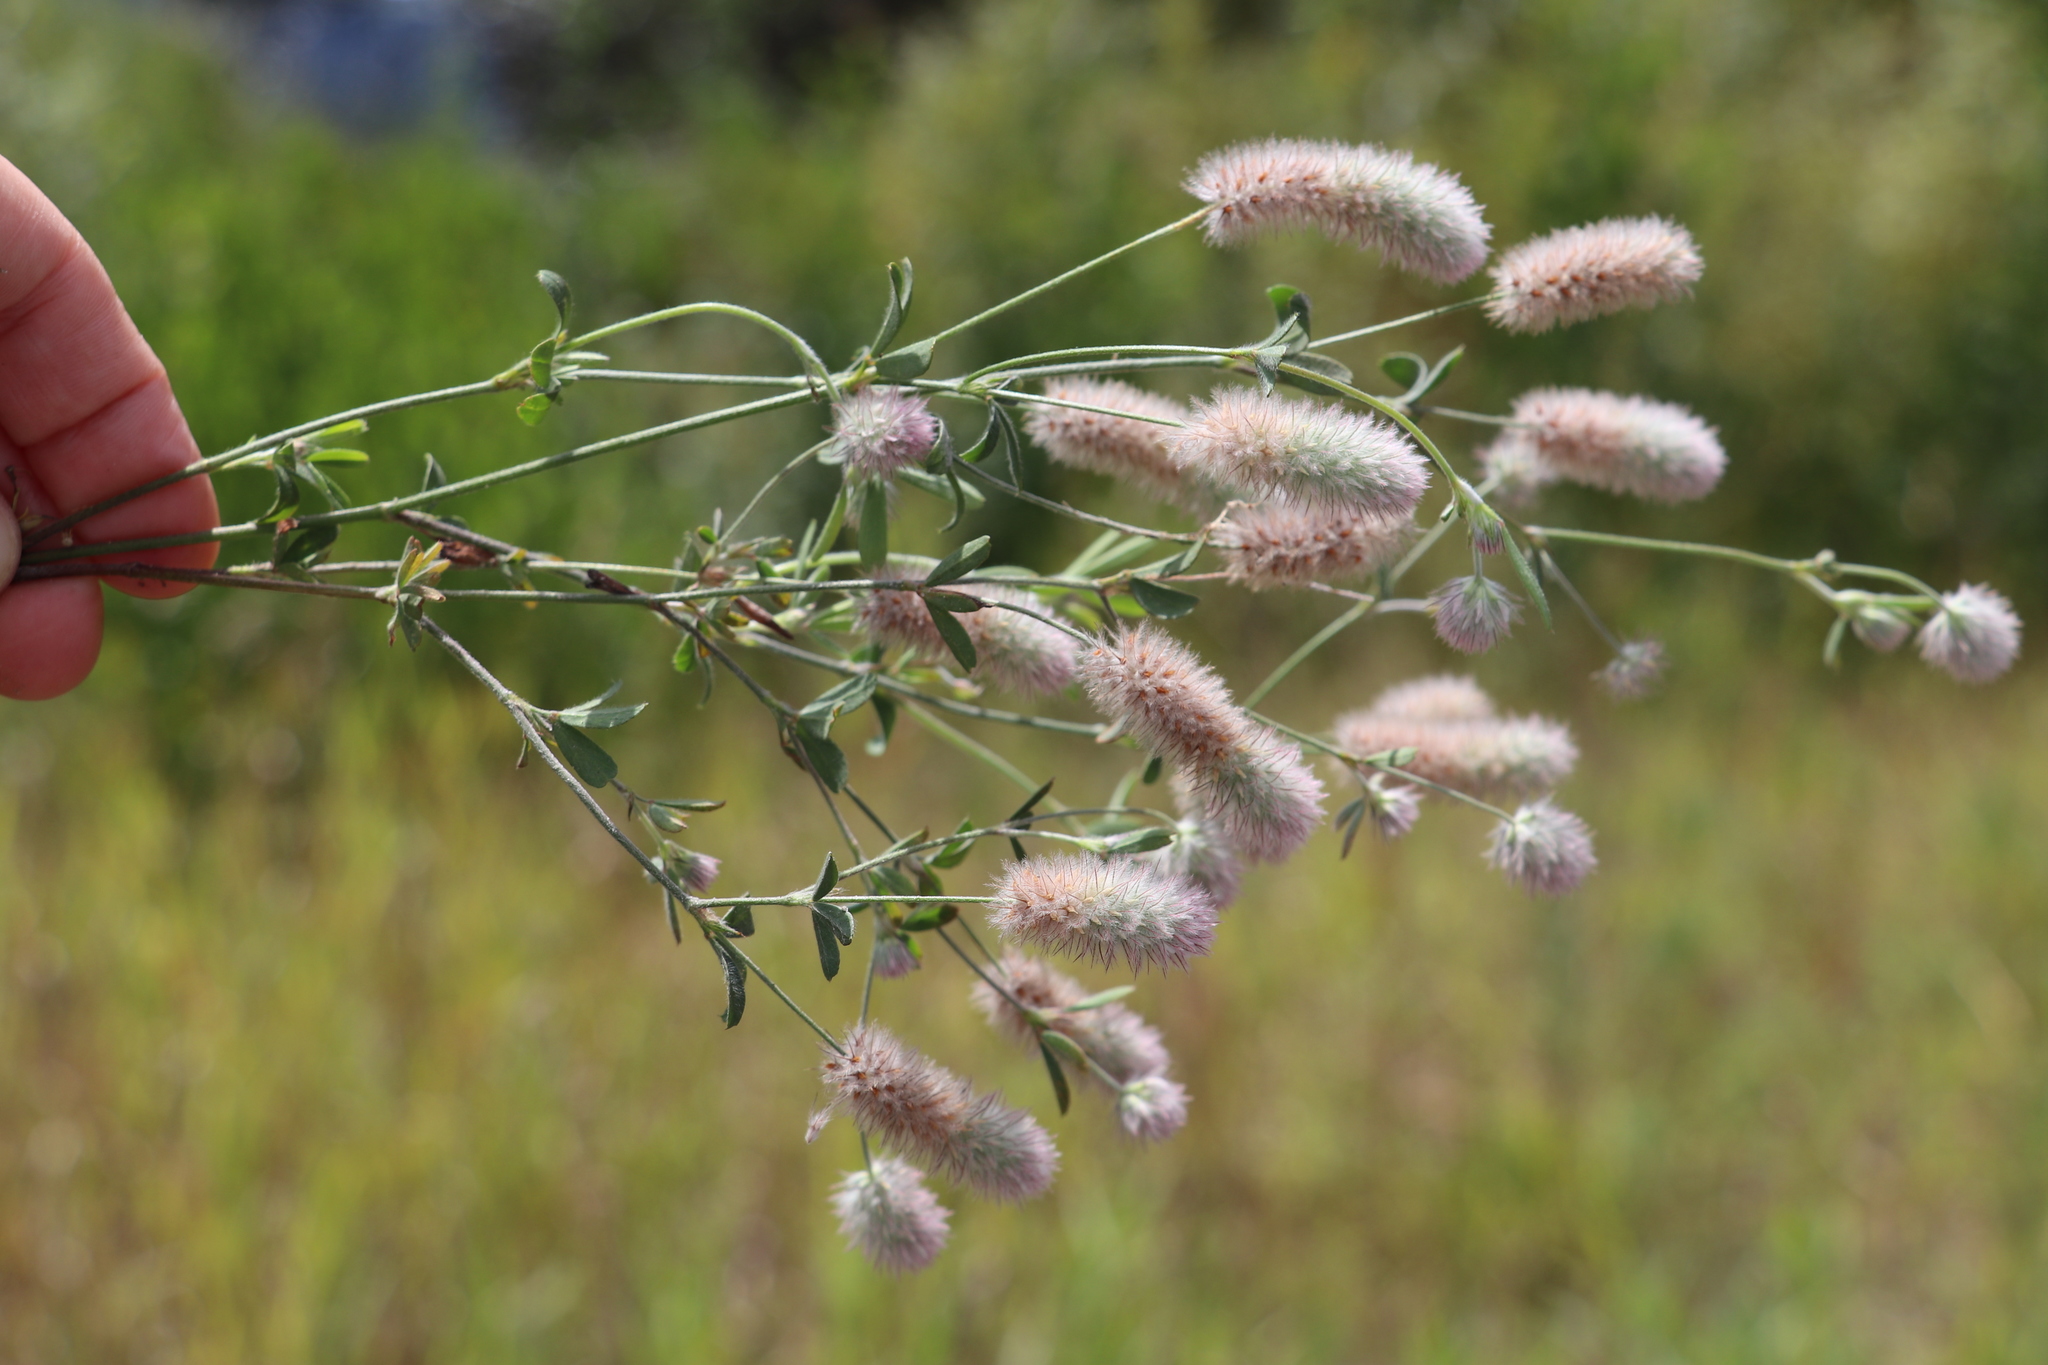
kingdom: Plantae
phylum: Tracheophyta
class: Magnoliopsida
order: Fabales
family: Fabaceae
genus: Trifolium
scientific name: Trifolium arvense
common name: Hare's-foot clover
